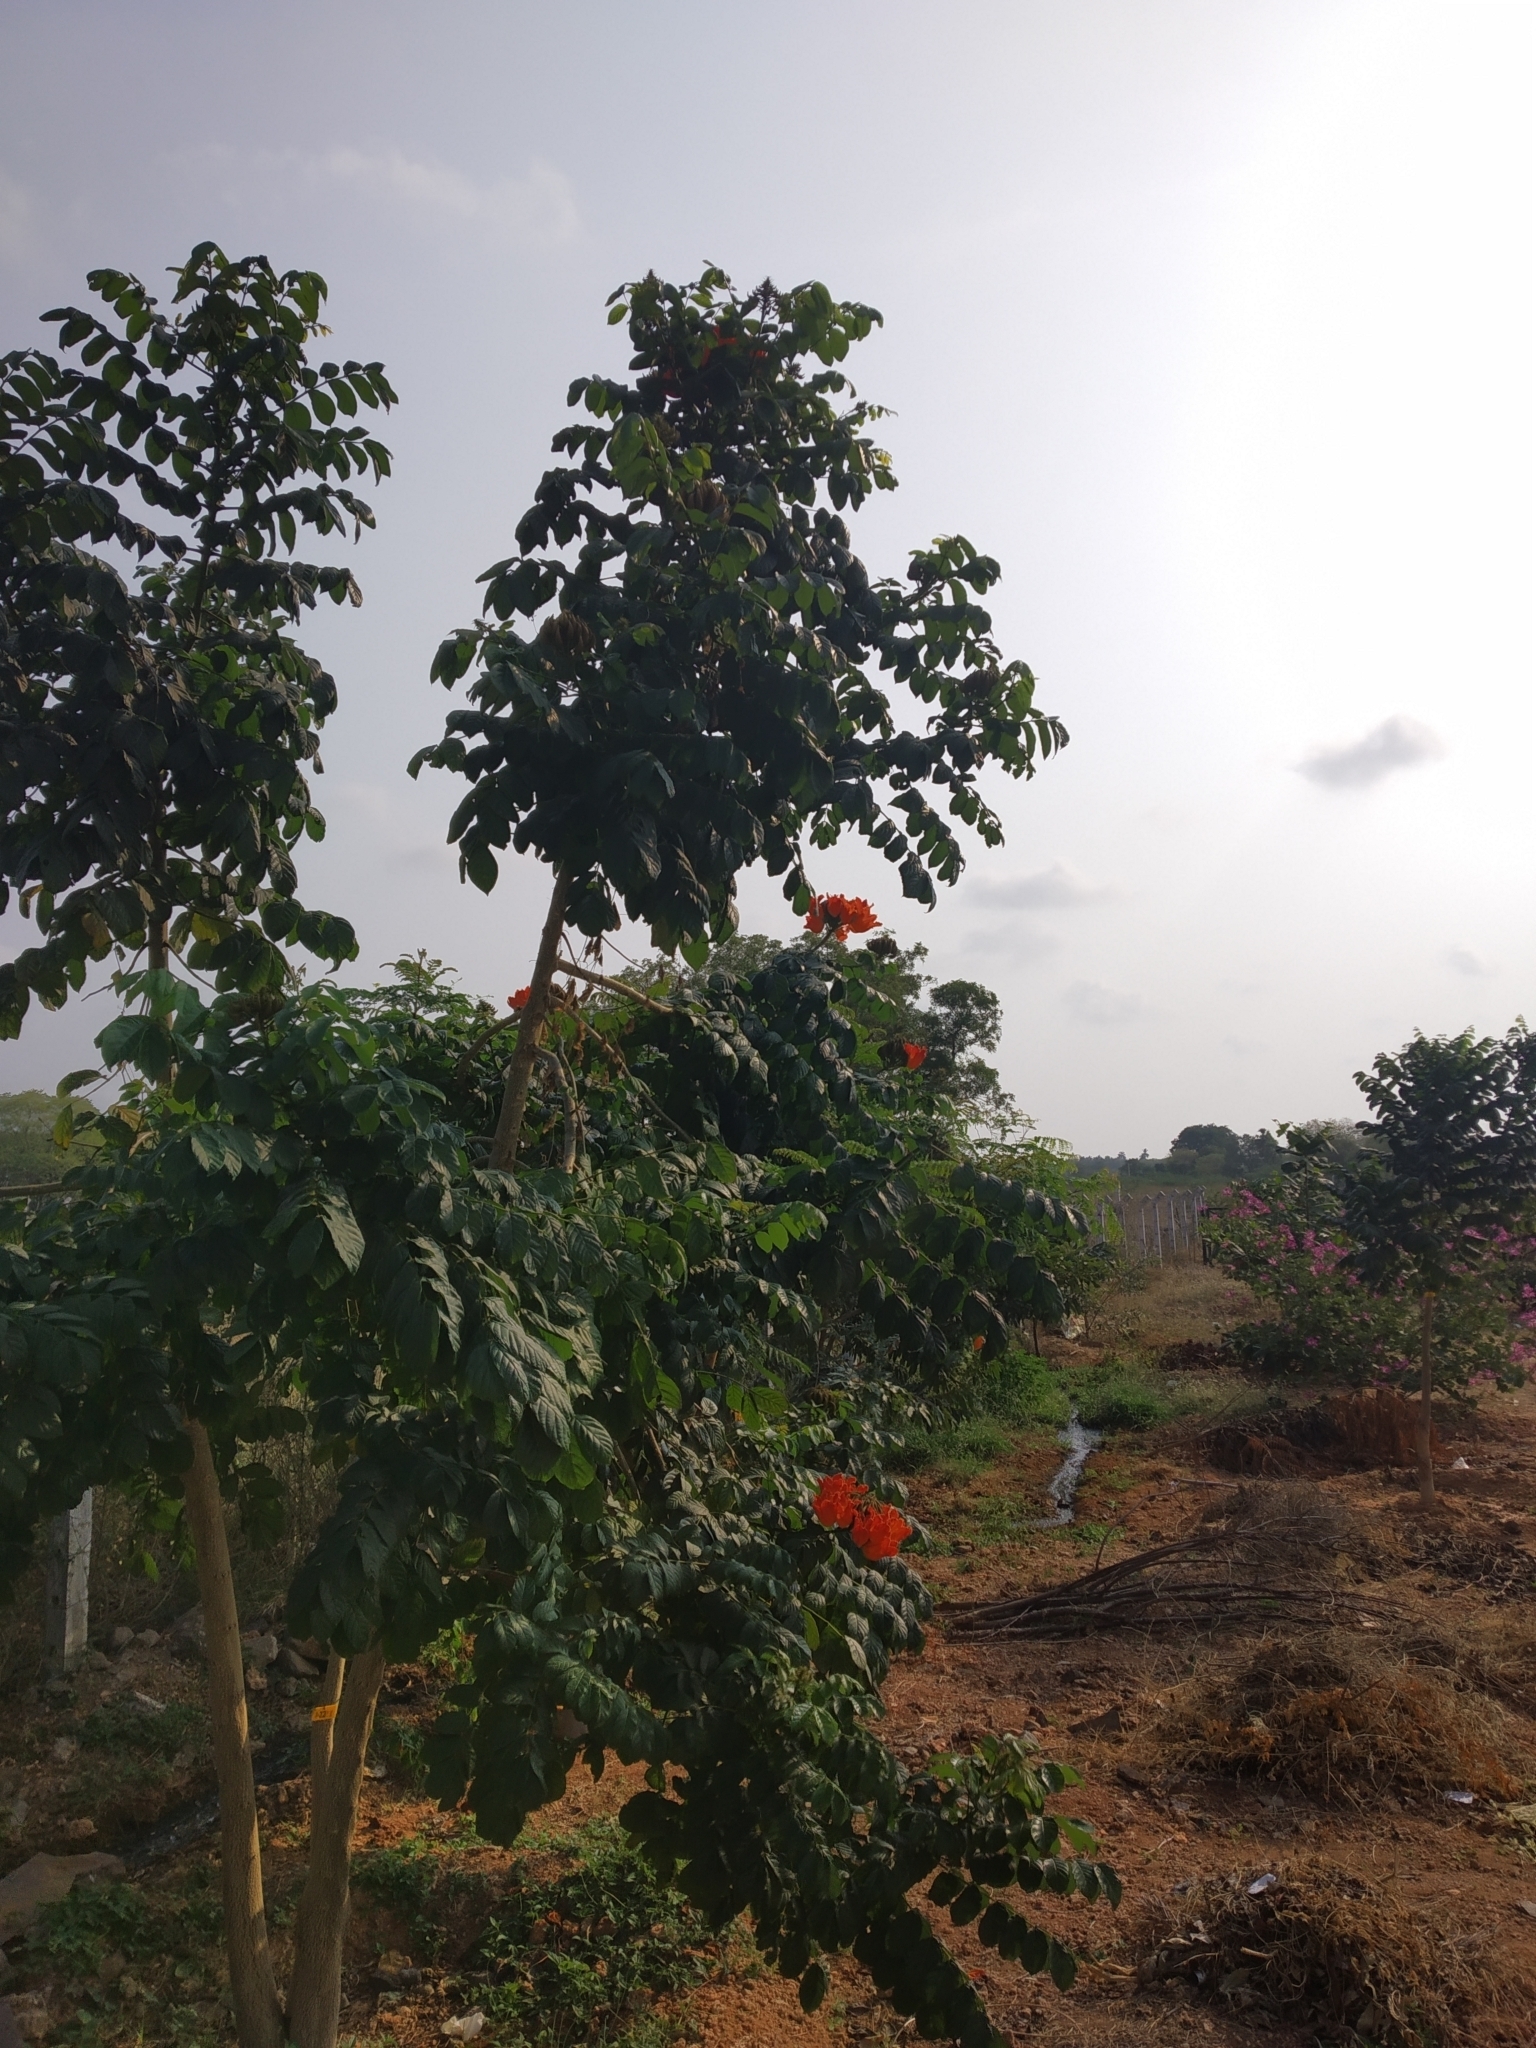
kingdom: Plantae
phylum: Tracheophyta
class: Magnoliopsida
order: Lamiales
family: Bignoniaceae
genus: Spathodea
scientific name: Spathodea campanulata
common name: African tuliptree
